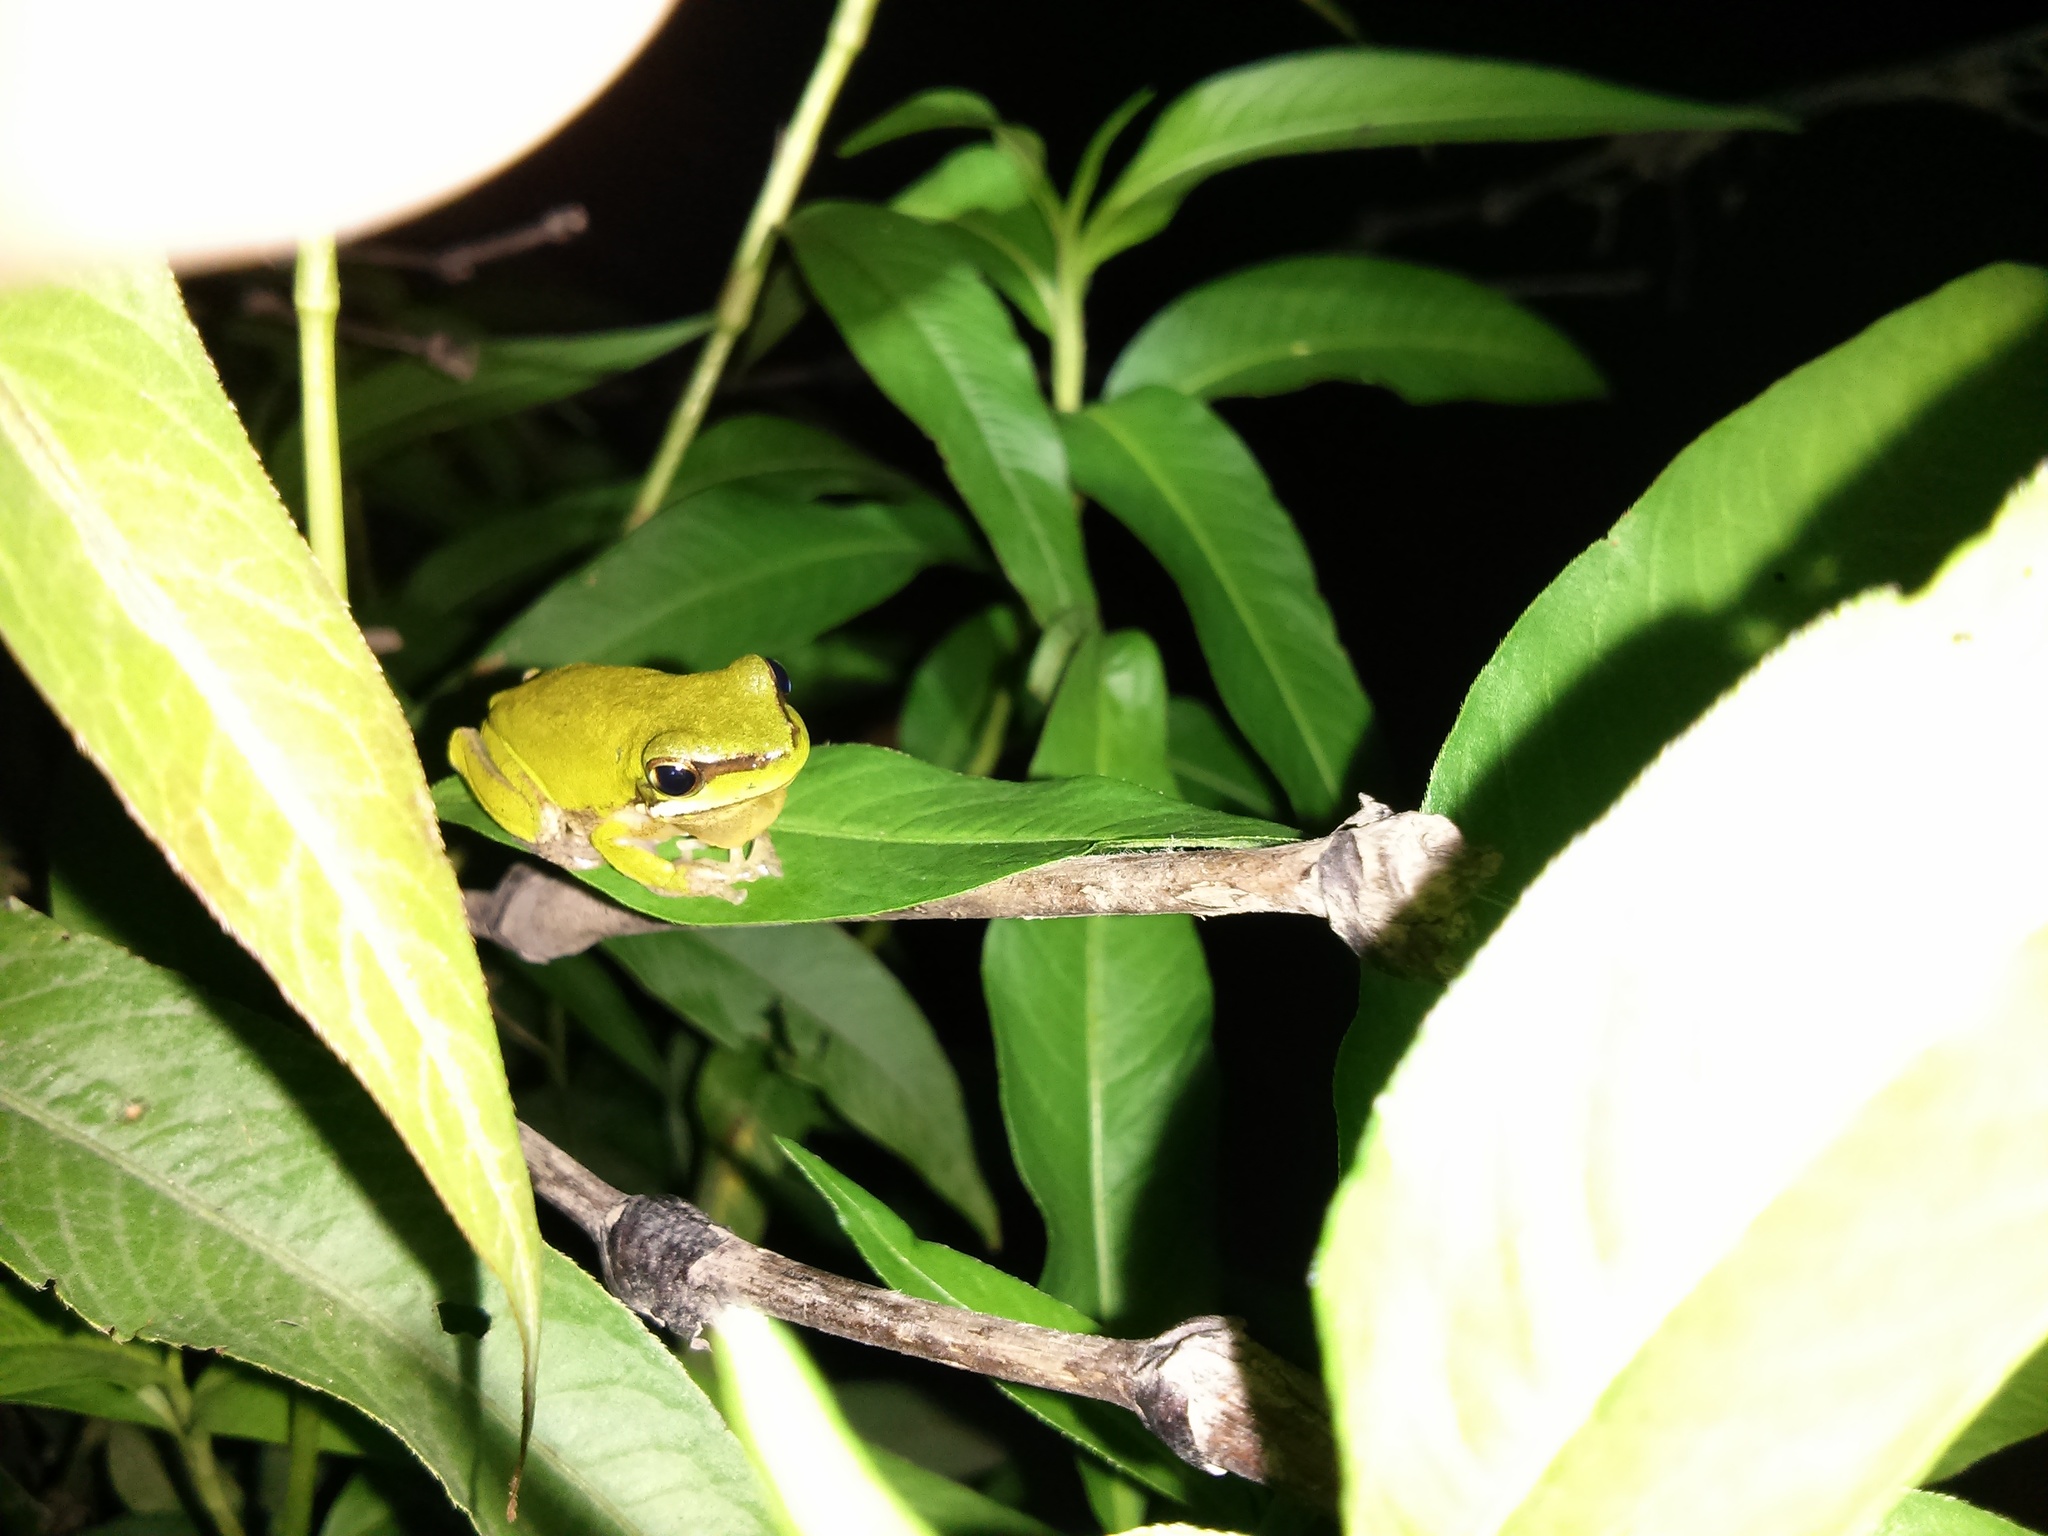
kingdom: Animalia
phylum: Chordata
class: Amphibia
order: Anura
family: Pelodryadidae
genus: Litoria
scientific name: Litoria fallax
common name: Eastern dwarf treefrog
